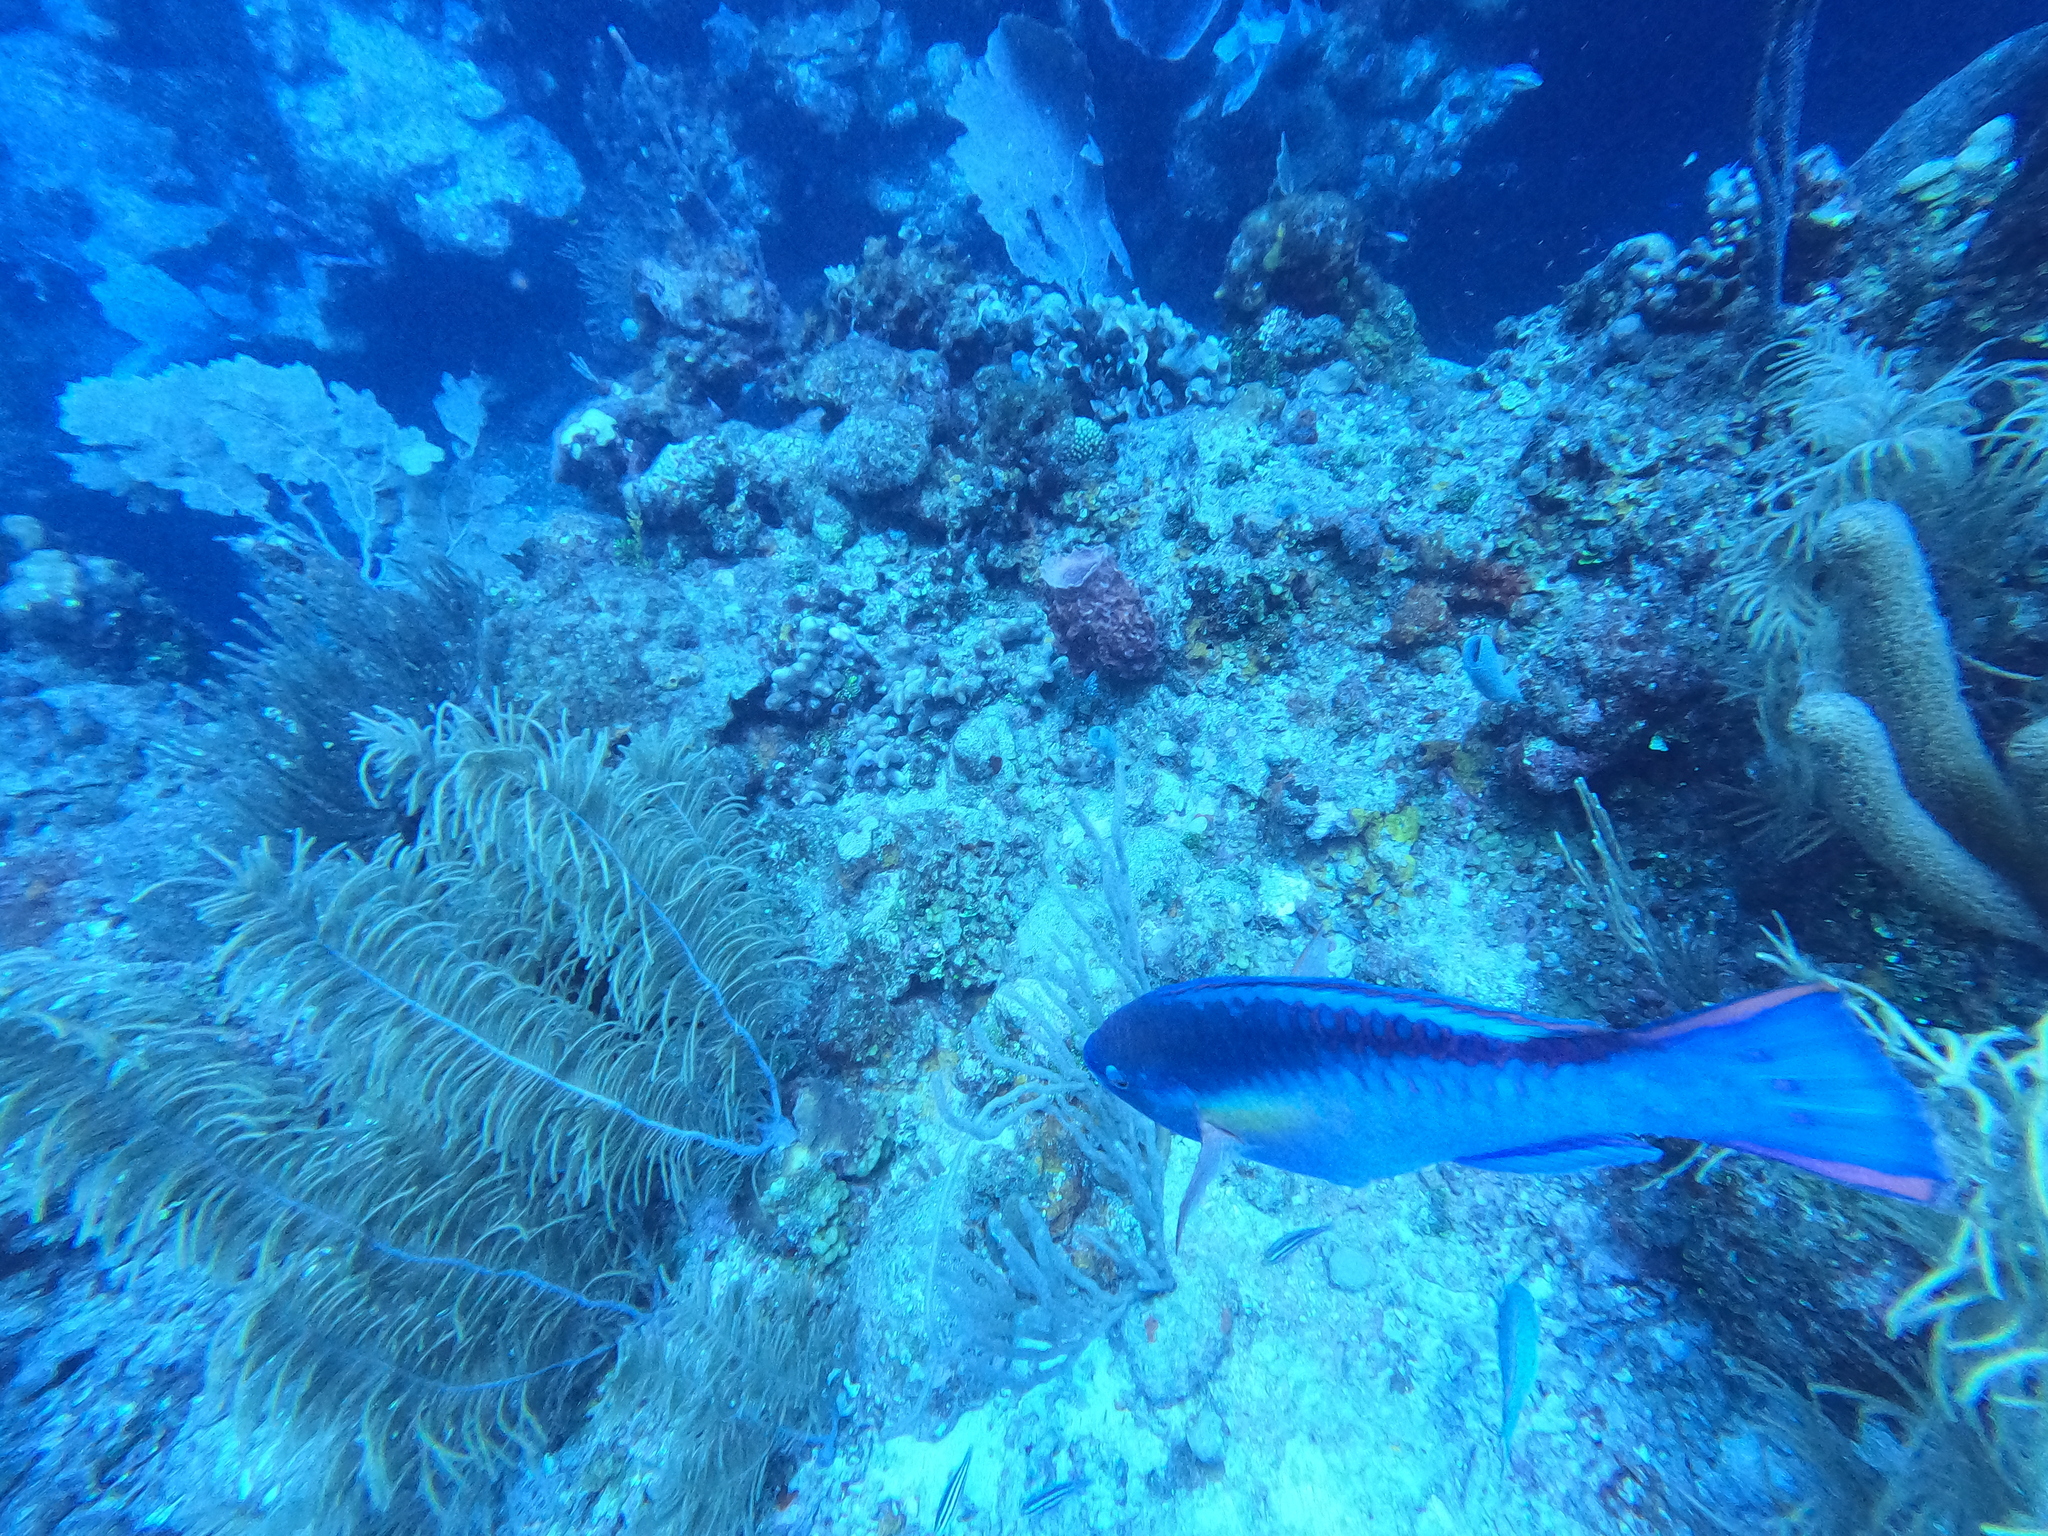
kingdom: Animalia
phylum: Chordata
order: Perciformes
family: Scaridae
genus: Scarus
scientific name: Scarus taeniopterus
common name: Princess parrotfish
